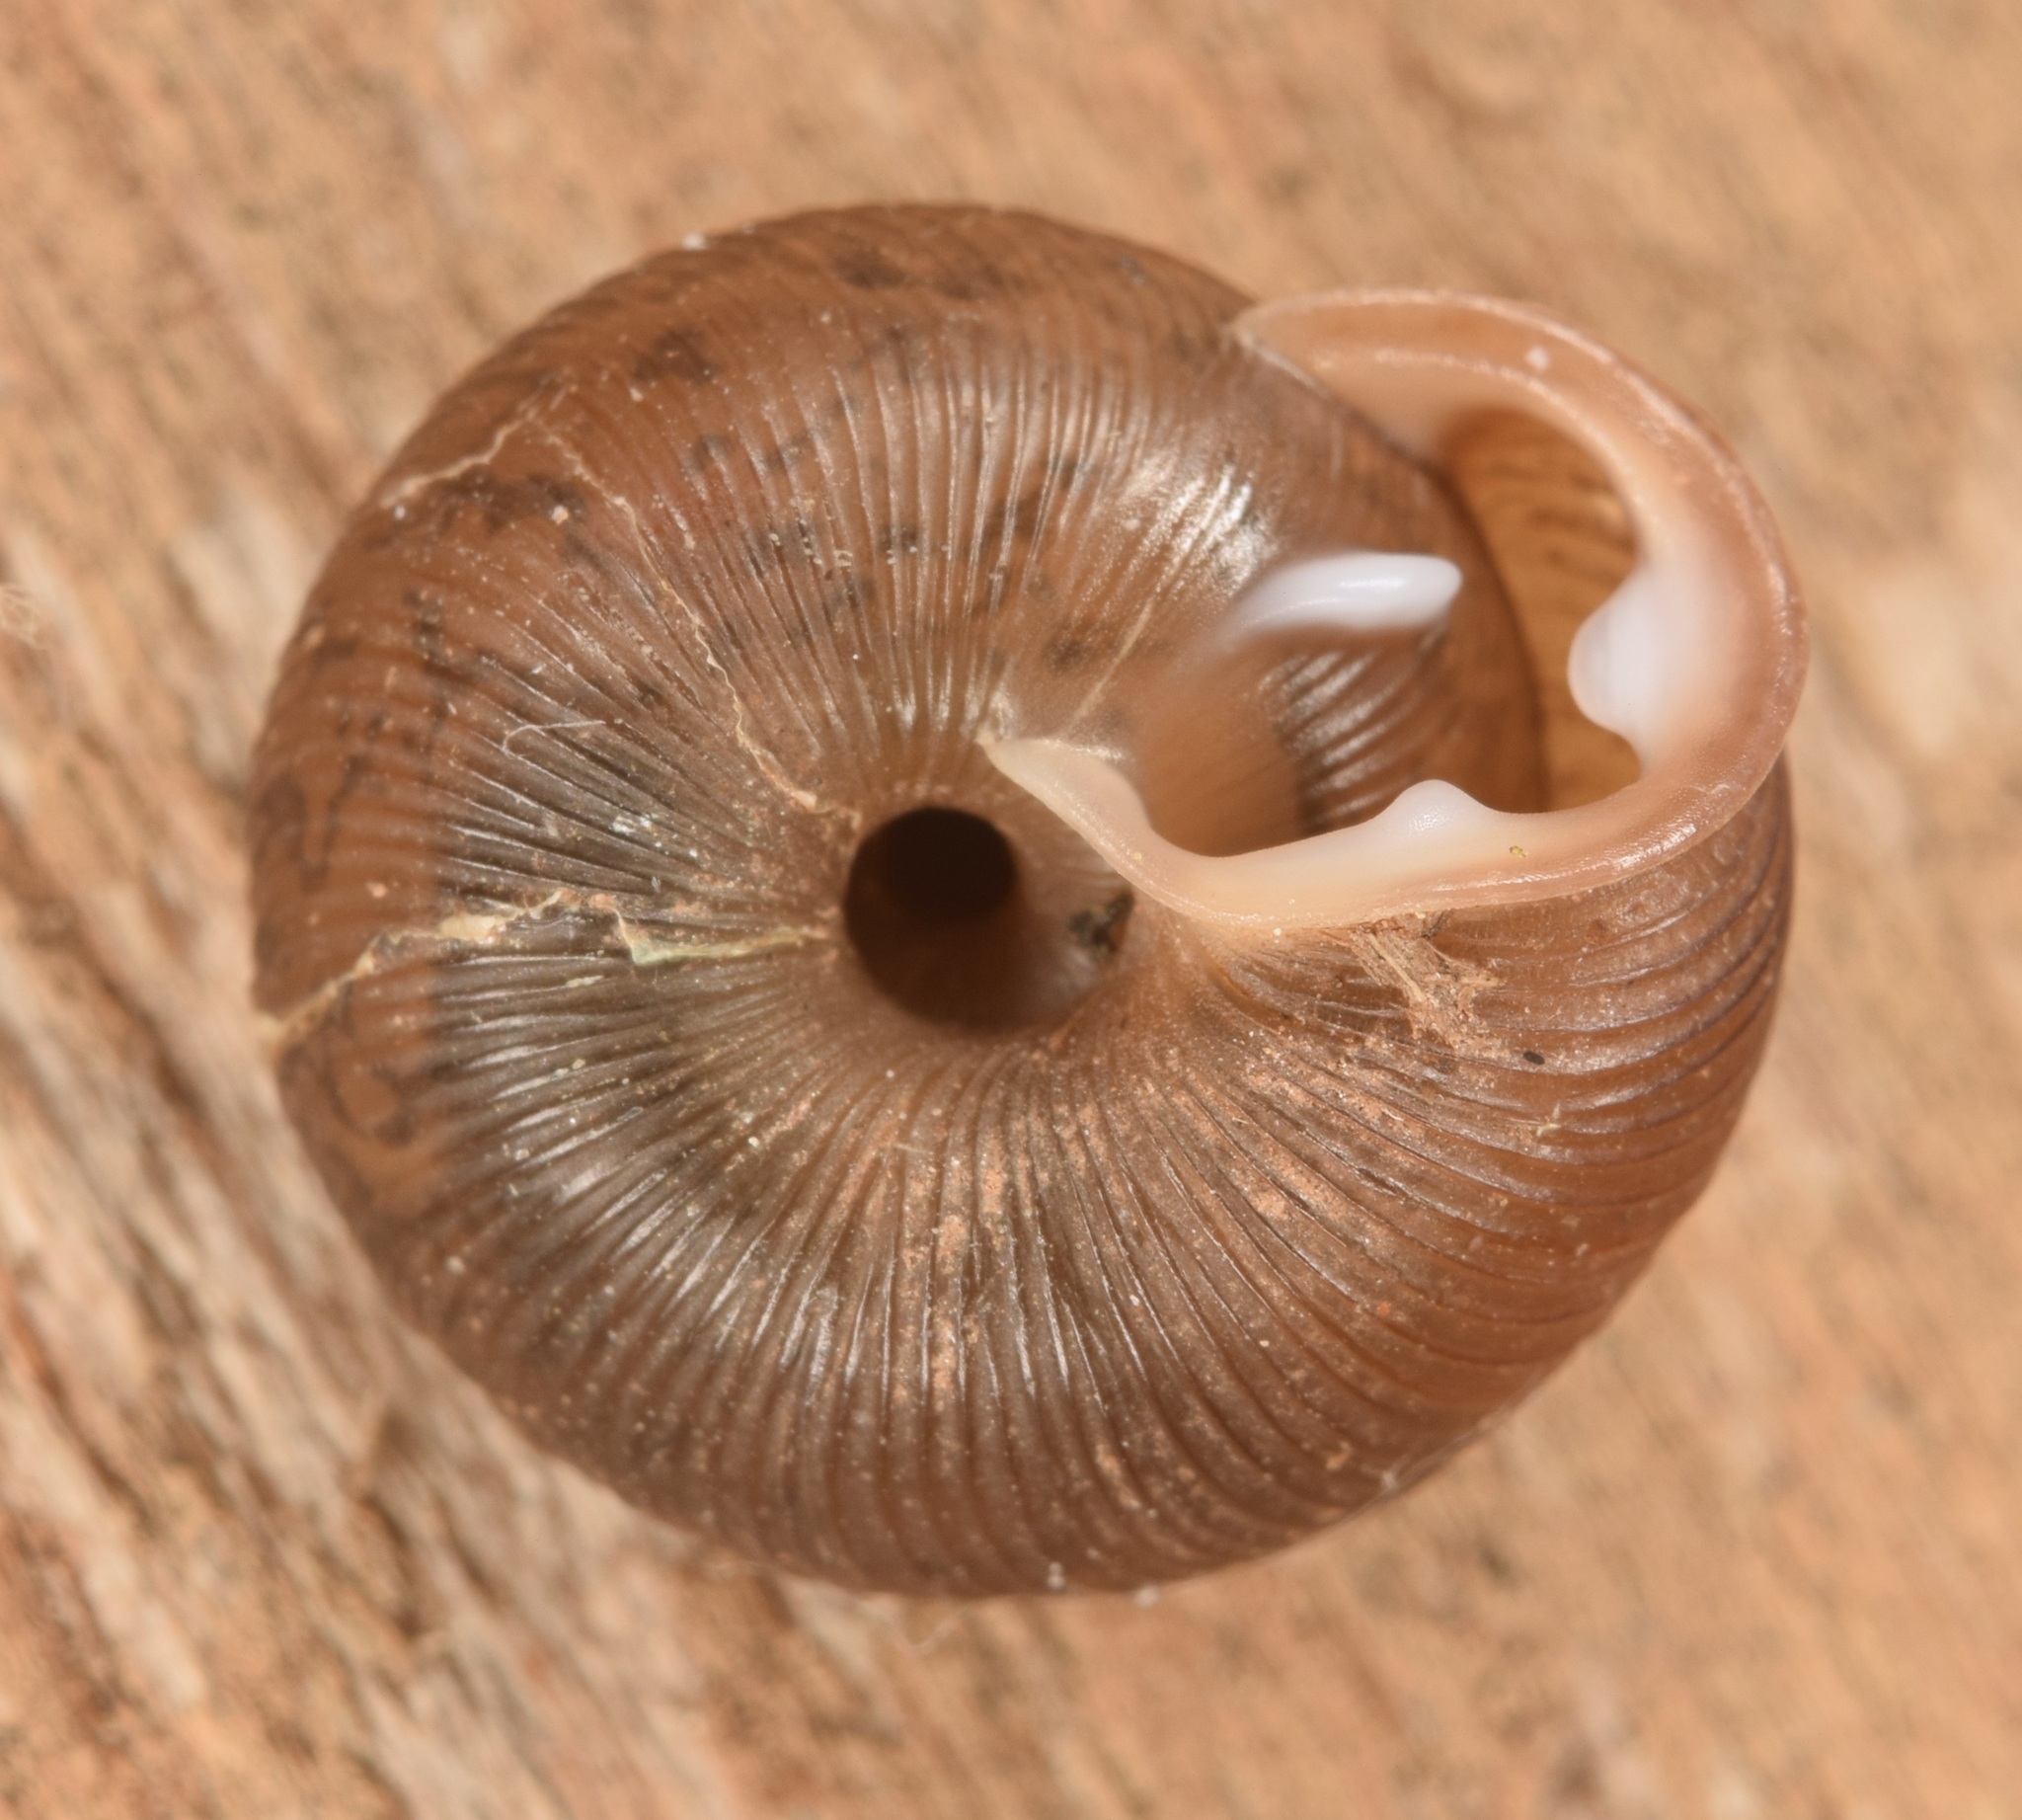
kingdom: Animalia
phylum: Mollusca
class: Gastropoda
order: Stylommatophora
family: Polygyridae
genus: Triodopsis
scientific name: Triodopsis hopetonensis
